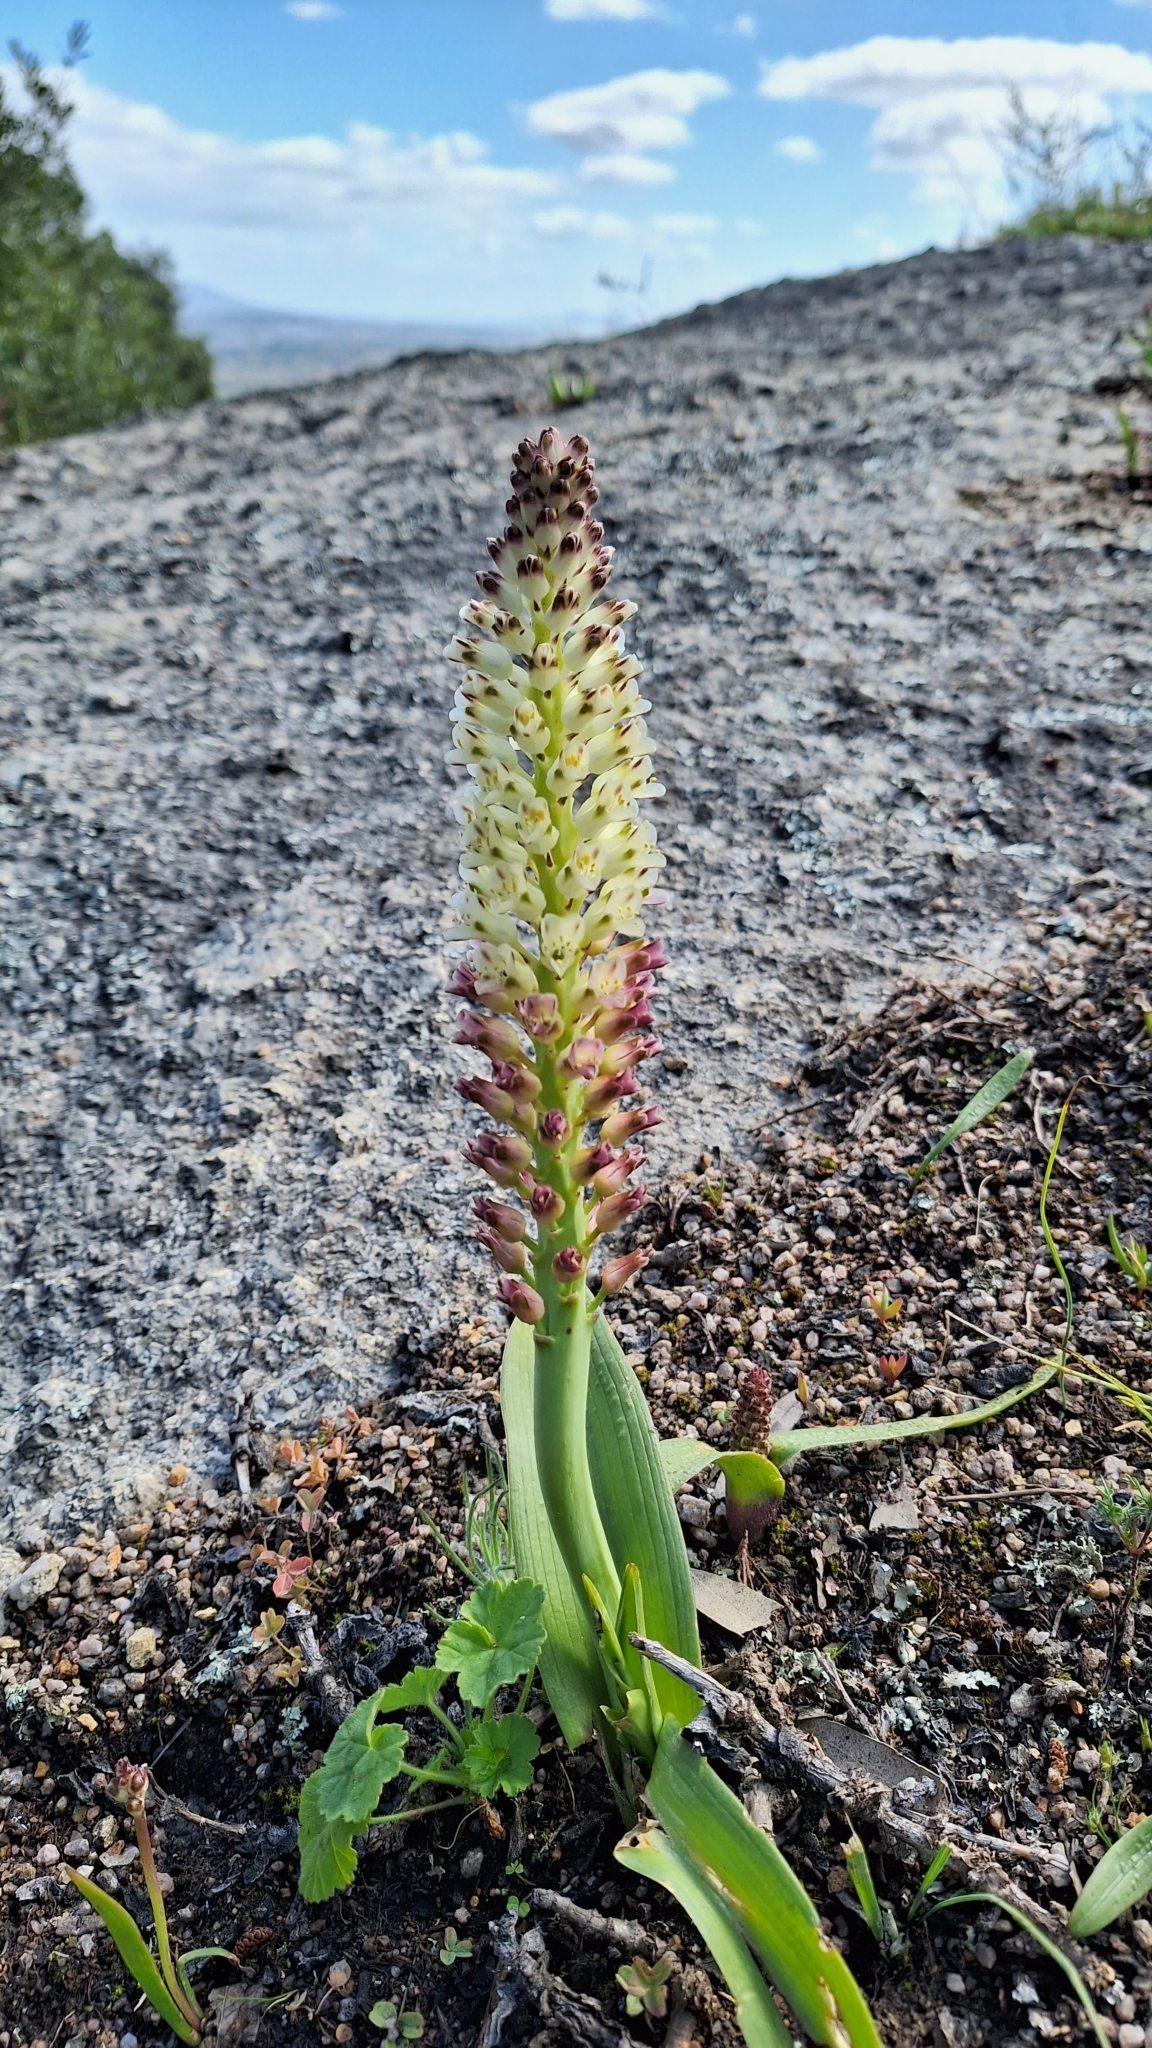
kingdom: Plantae
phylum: Tracheophyta
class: Liliopsida
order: Asparagales
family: Asparagaceae
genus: Lachenalia
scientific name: Lachenalia pallida
